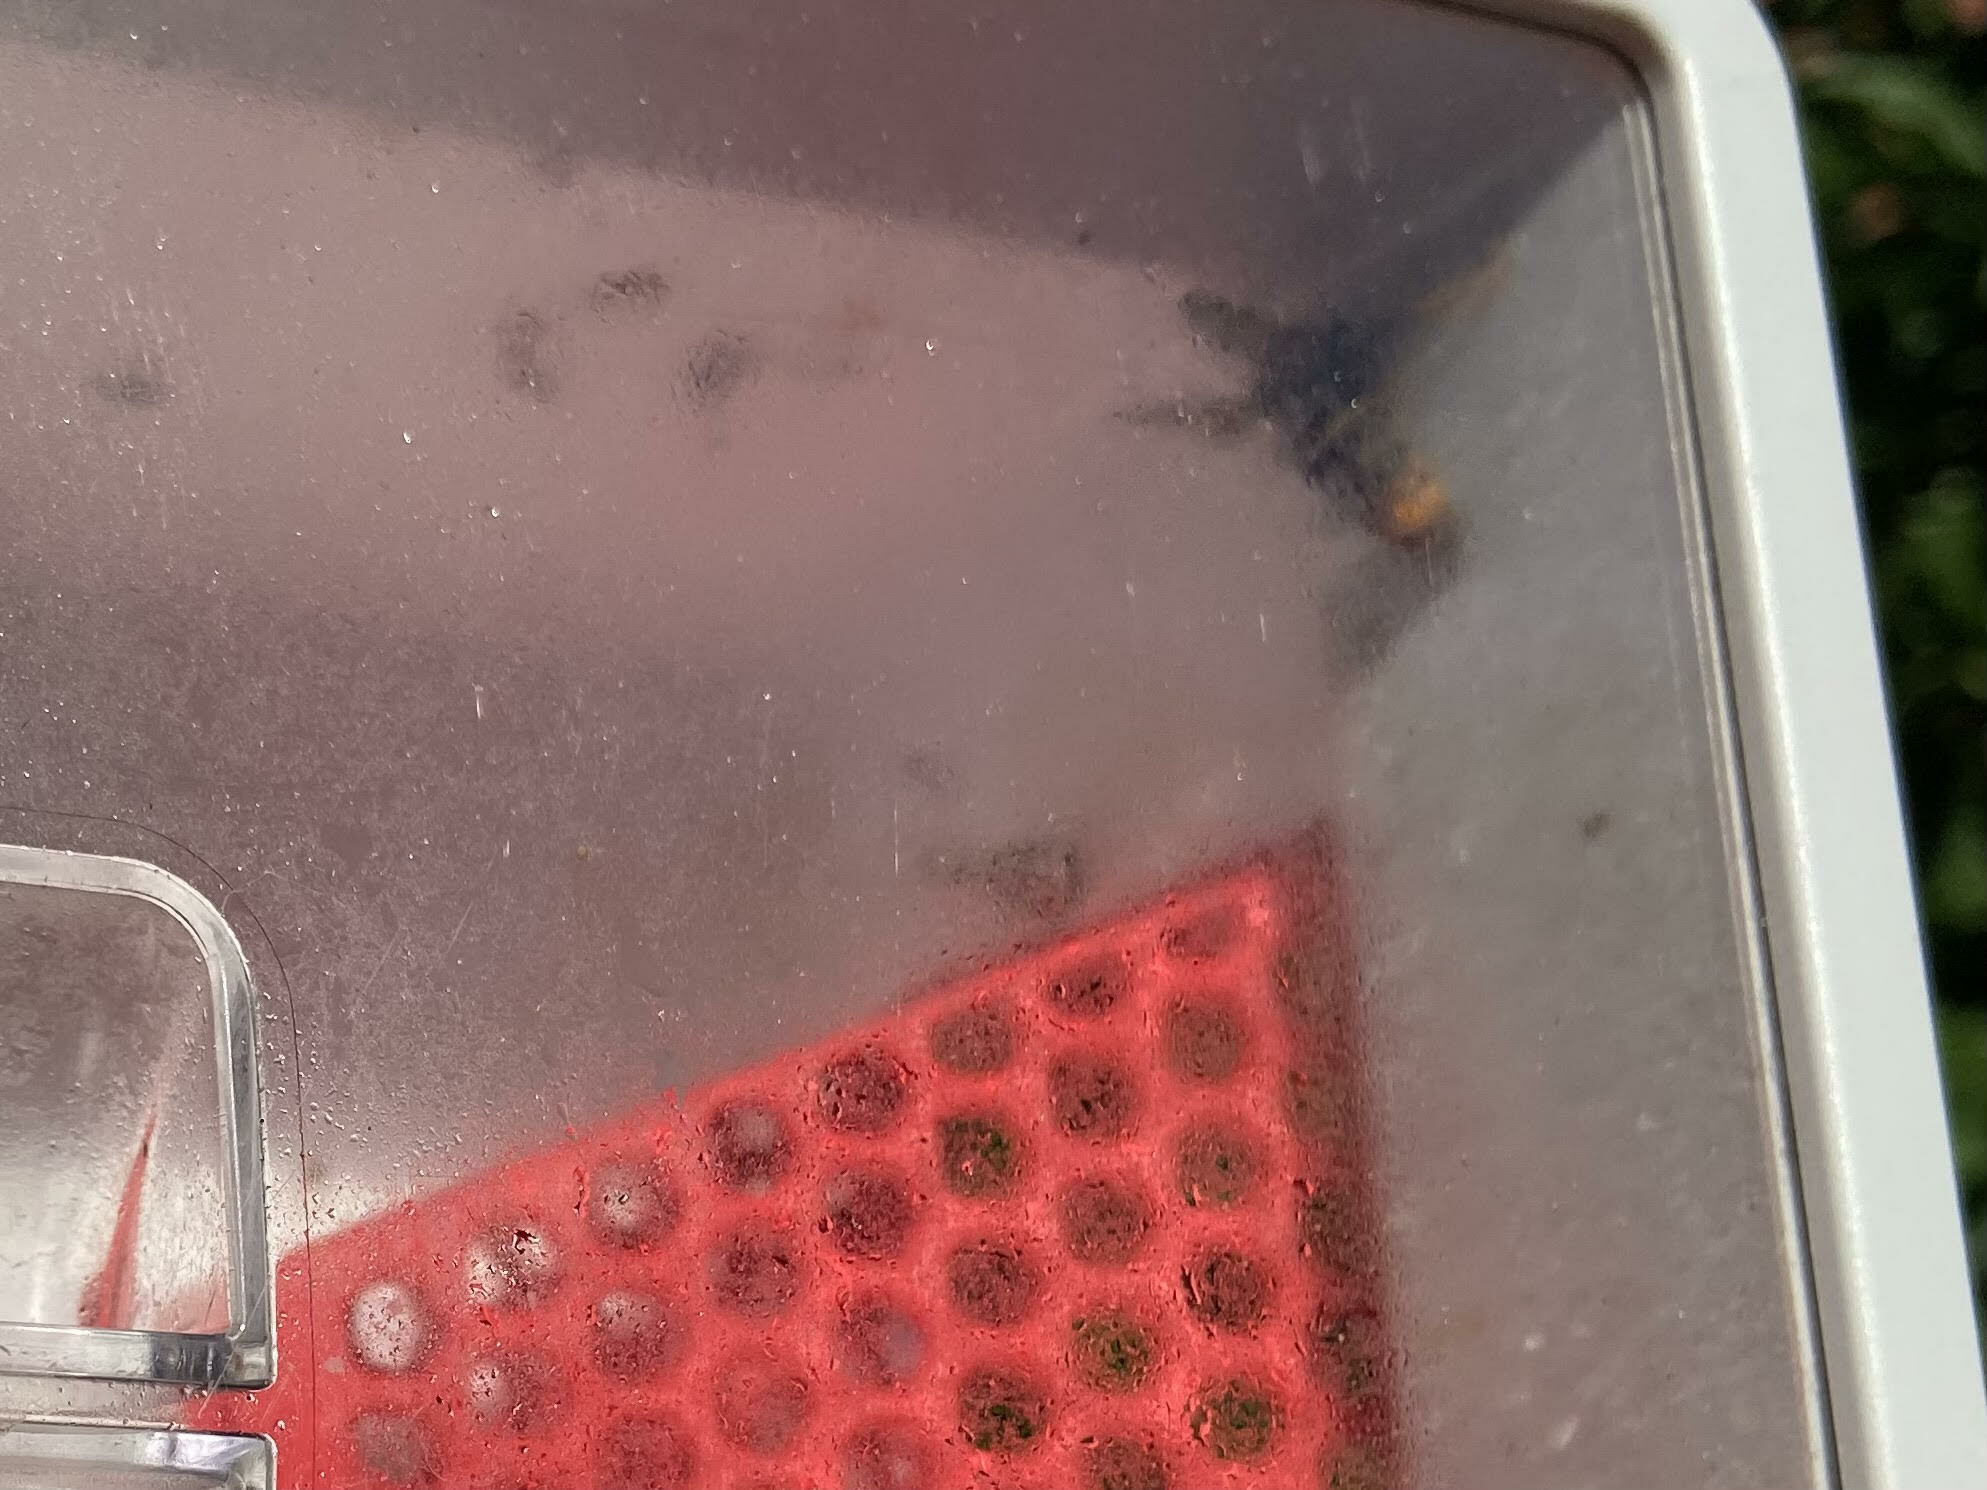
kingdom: Animalia
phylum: Arthropoda
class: Insecta
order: Hymenoptera
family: Vespidae
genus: Vespa
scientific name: Vespa velutina
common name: Asian hornet
